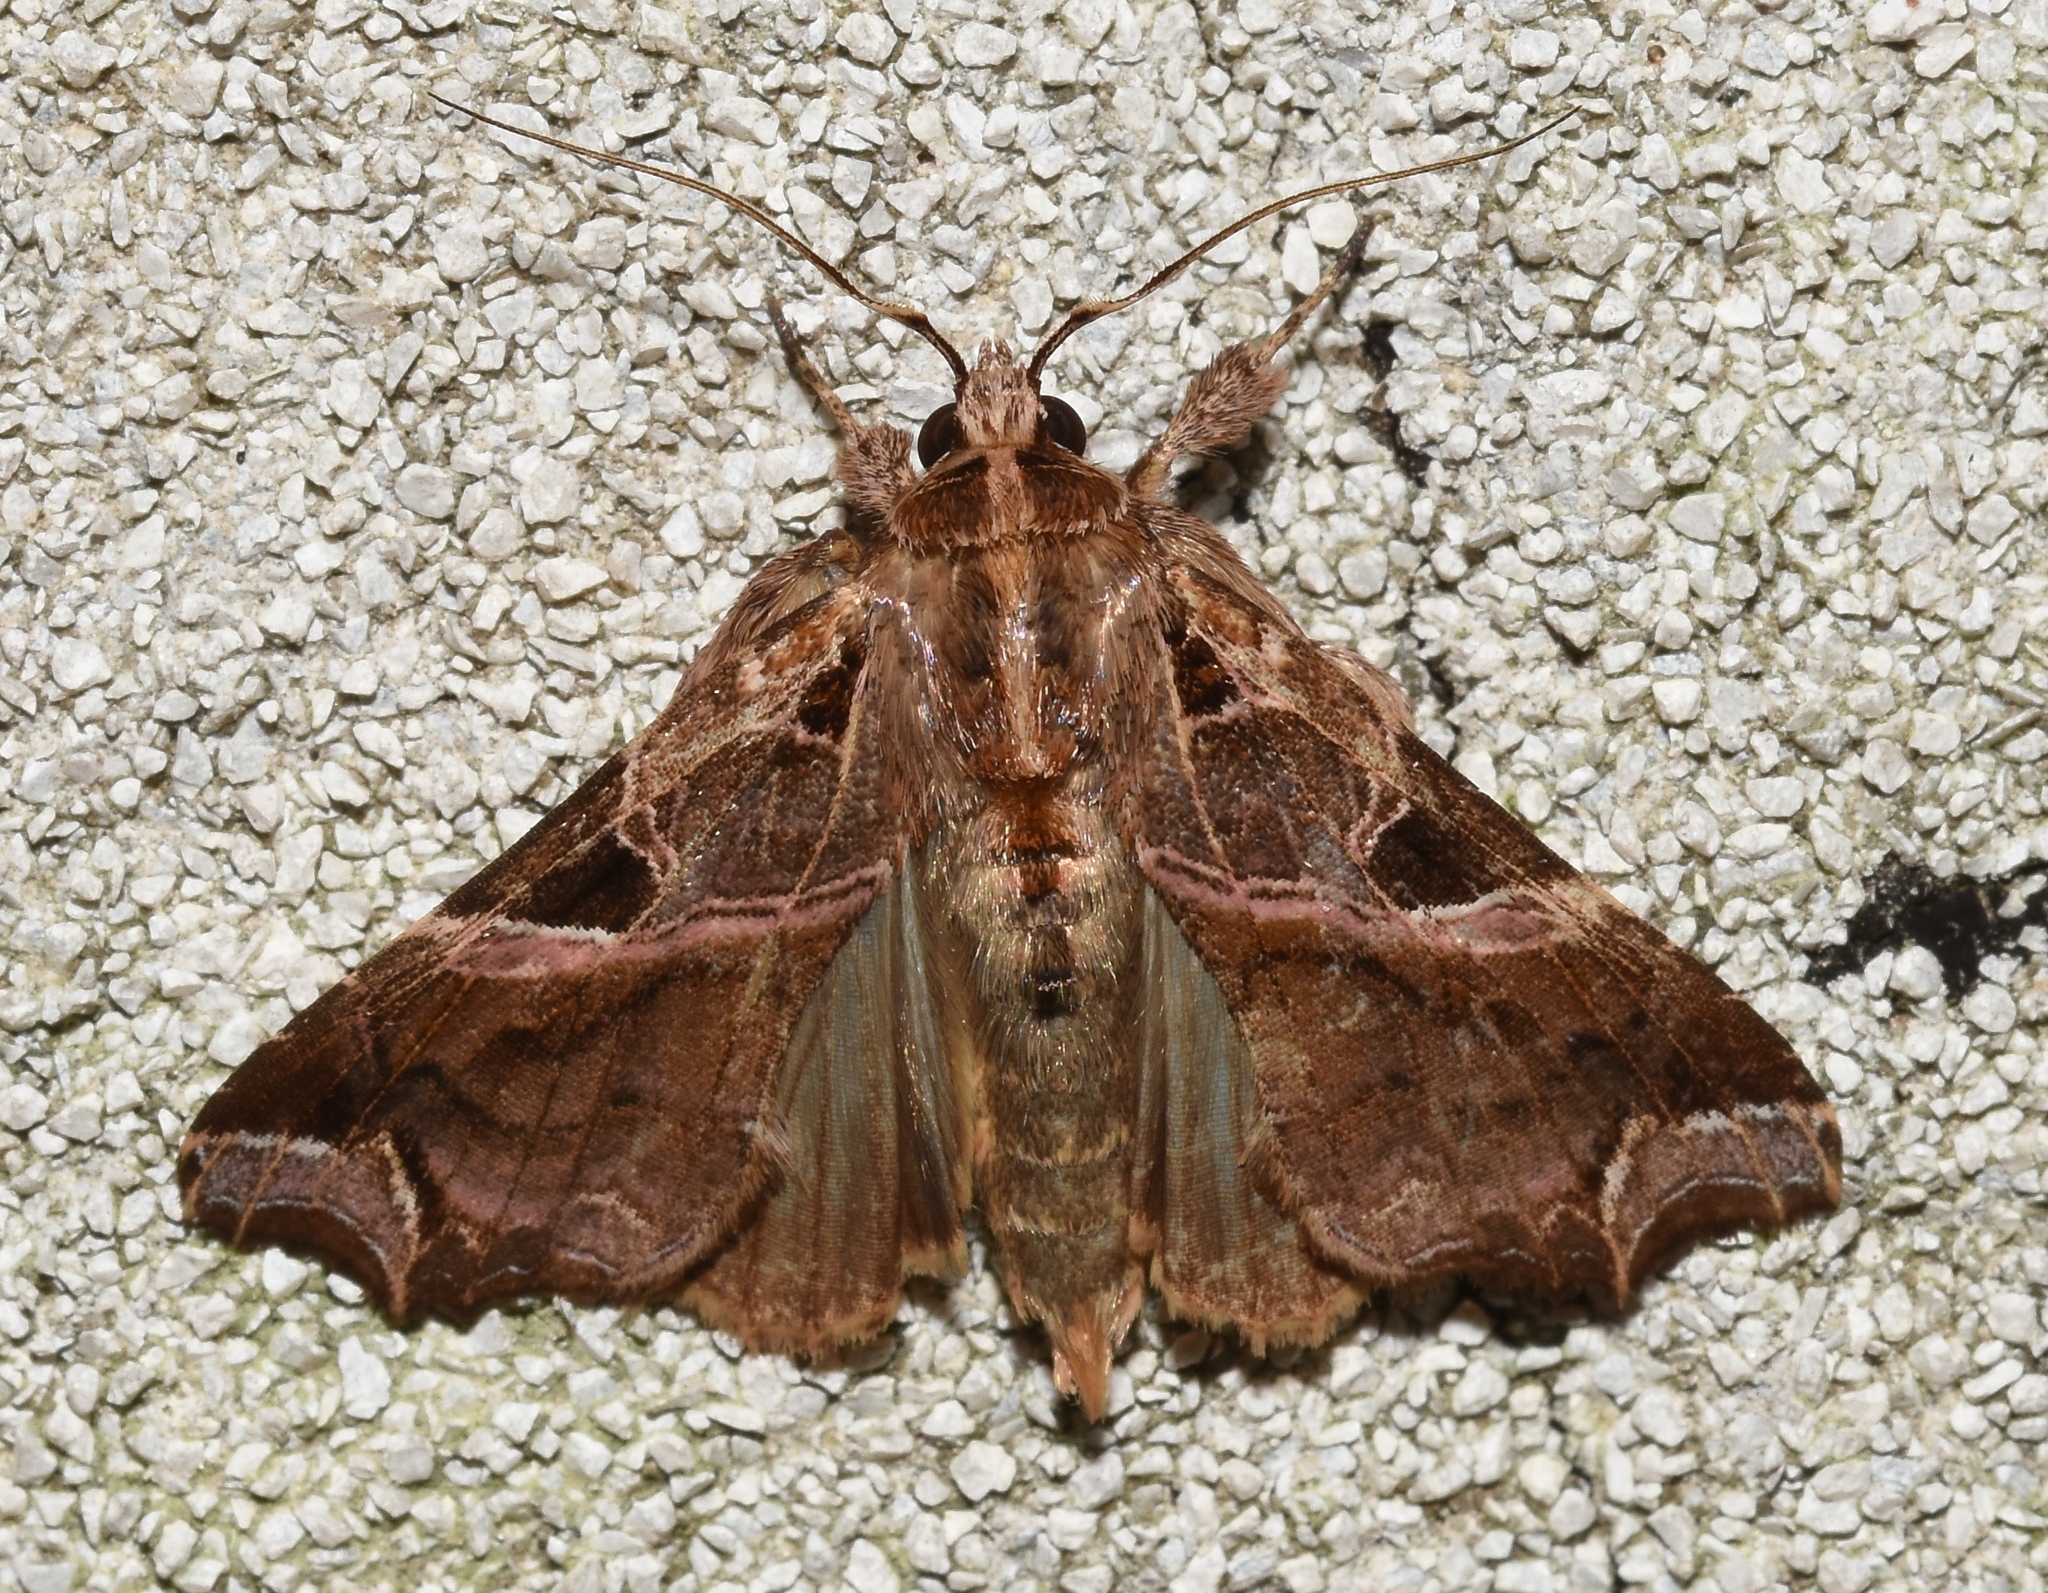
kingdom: Animalia
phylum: Arthropoda
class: Insecta
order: Lepidoptera
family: Noctuidae
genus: Callopistria
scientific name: Callopistria floridensis
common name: Florida fern moth
